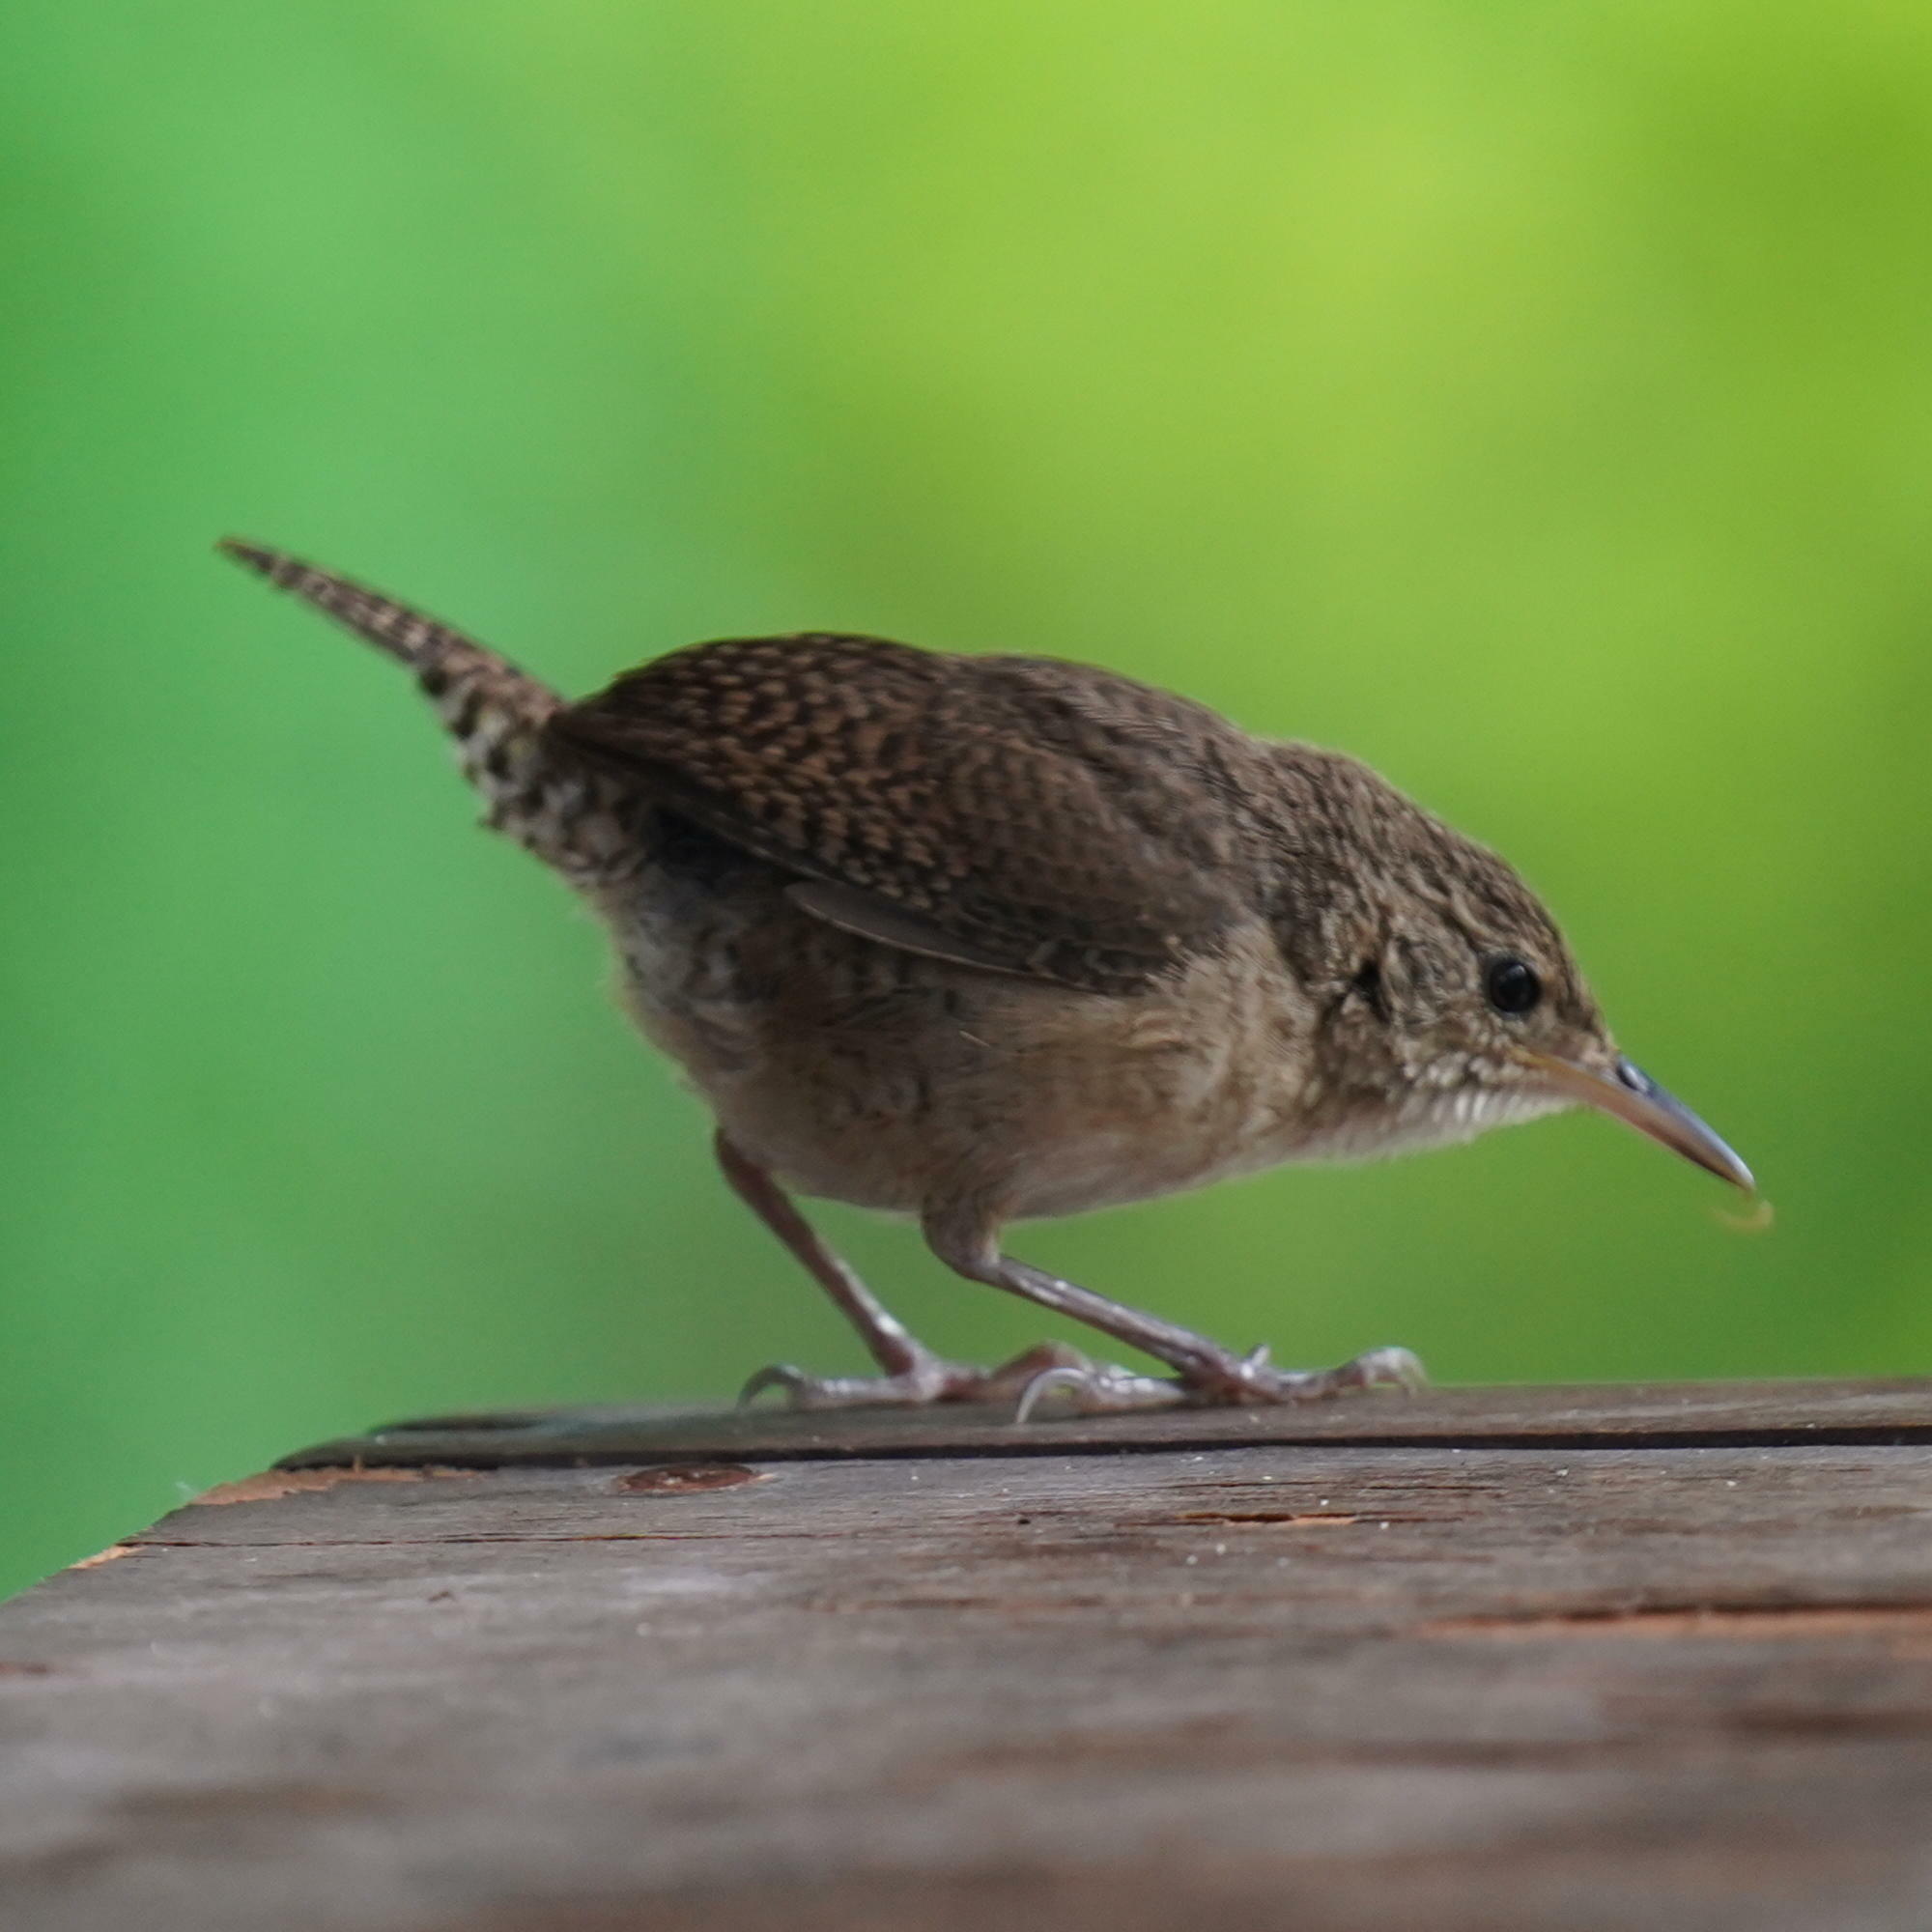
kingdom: Animalia
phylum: Chordata
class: Aves
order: Passeriformes
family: Troglodytidae
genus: Troglodytes
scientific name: Troglodytes aedon
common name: House wren
